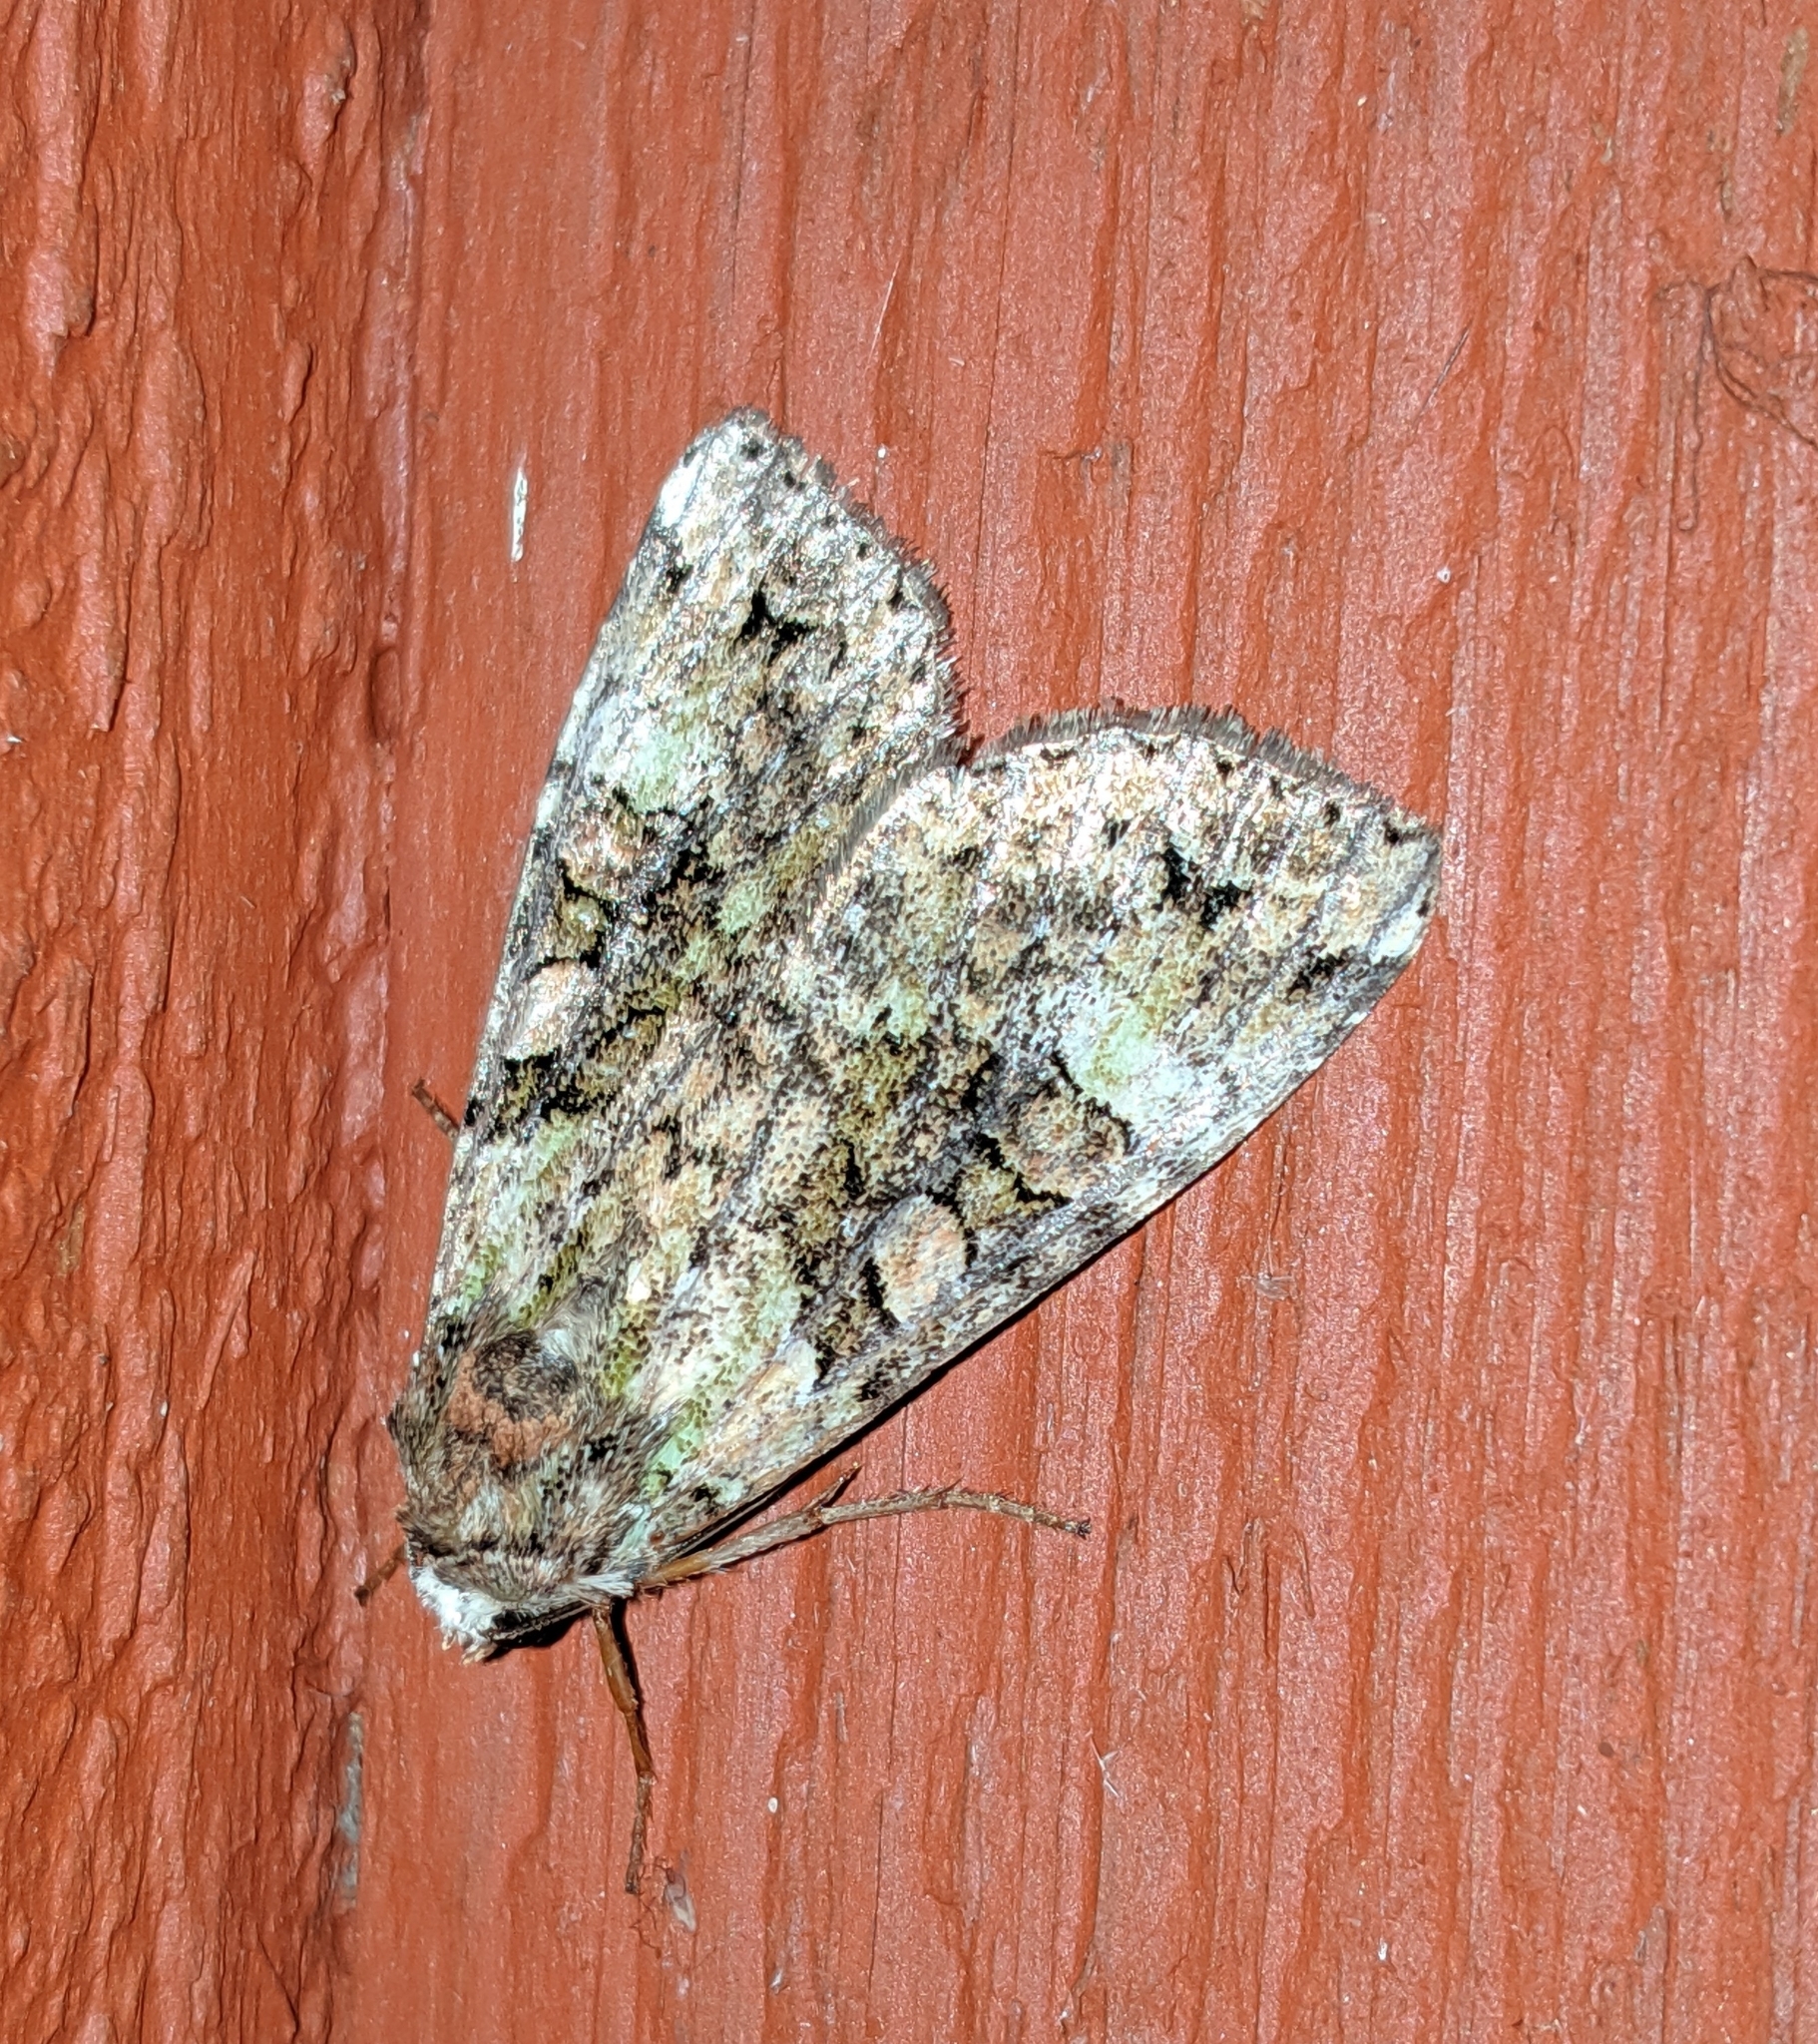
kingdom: Animalia
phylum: Arthropoda
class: Insecta
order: Lepidoptera
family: Noctuidae
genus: Anaplectoides
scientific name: Anaplectoides prasina
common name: Green arches
